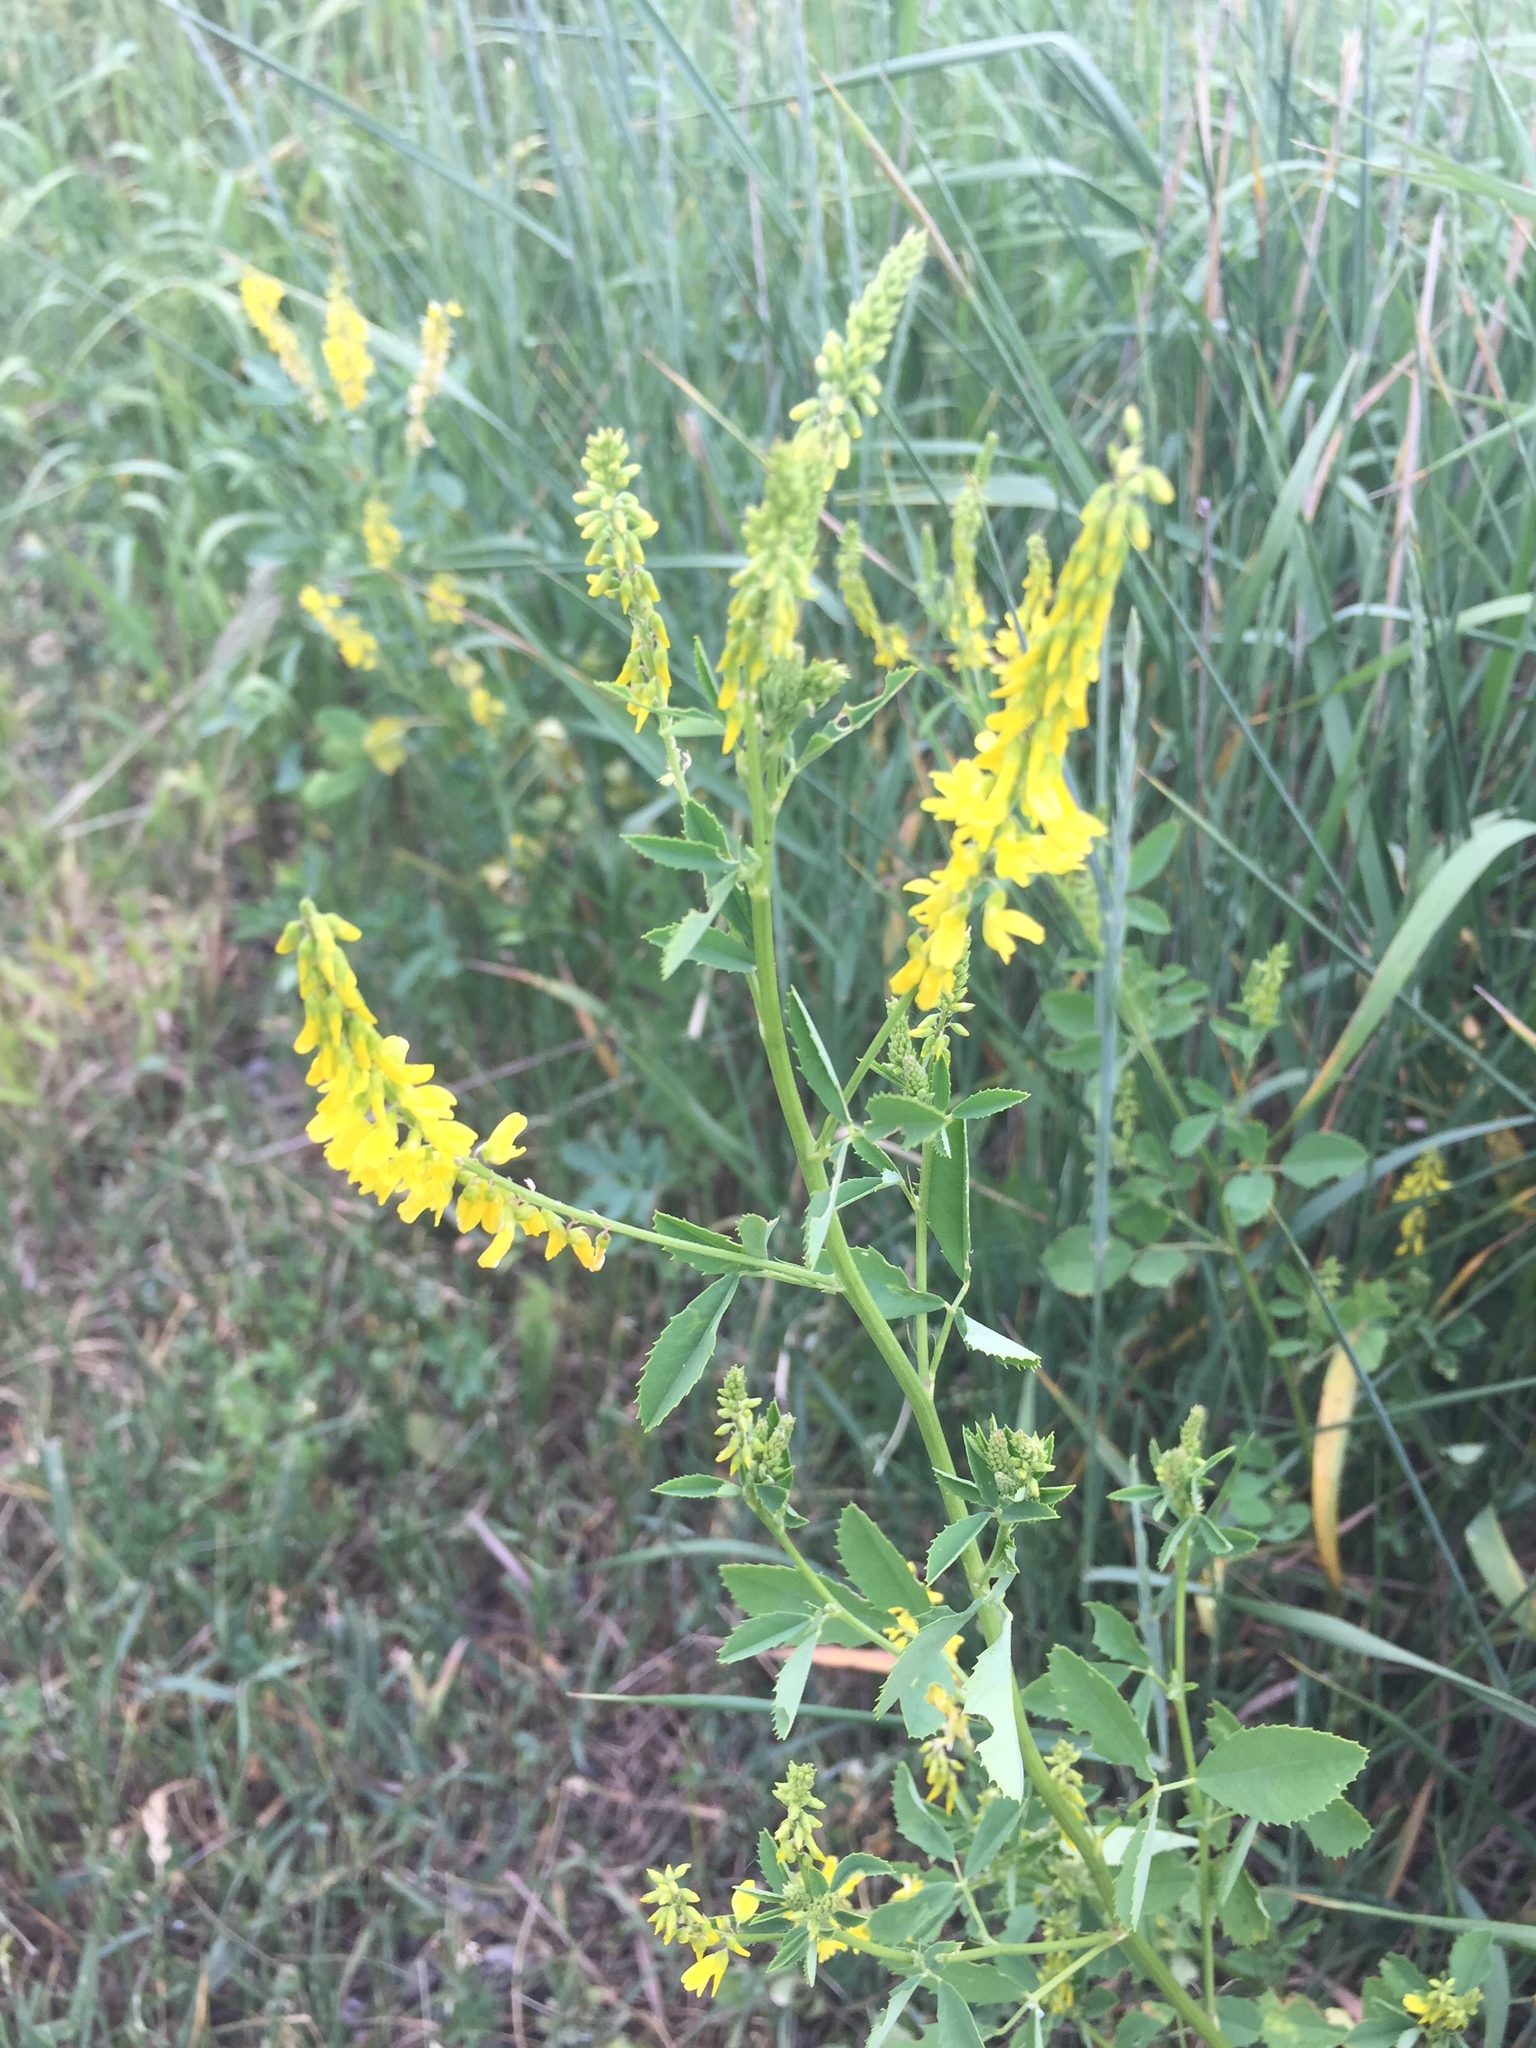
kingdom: Plantae
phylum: Tracheophyta
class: Magnoliopsida
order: Fabales
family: Fabaceae
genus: Melilotus
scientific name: Melilotus officinalis
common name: Sweetclover
